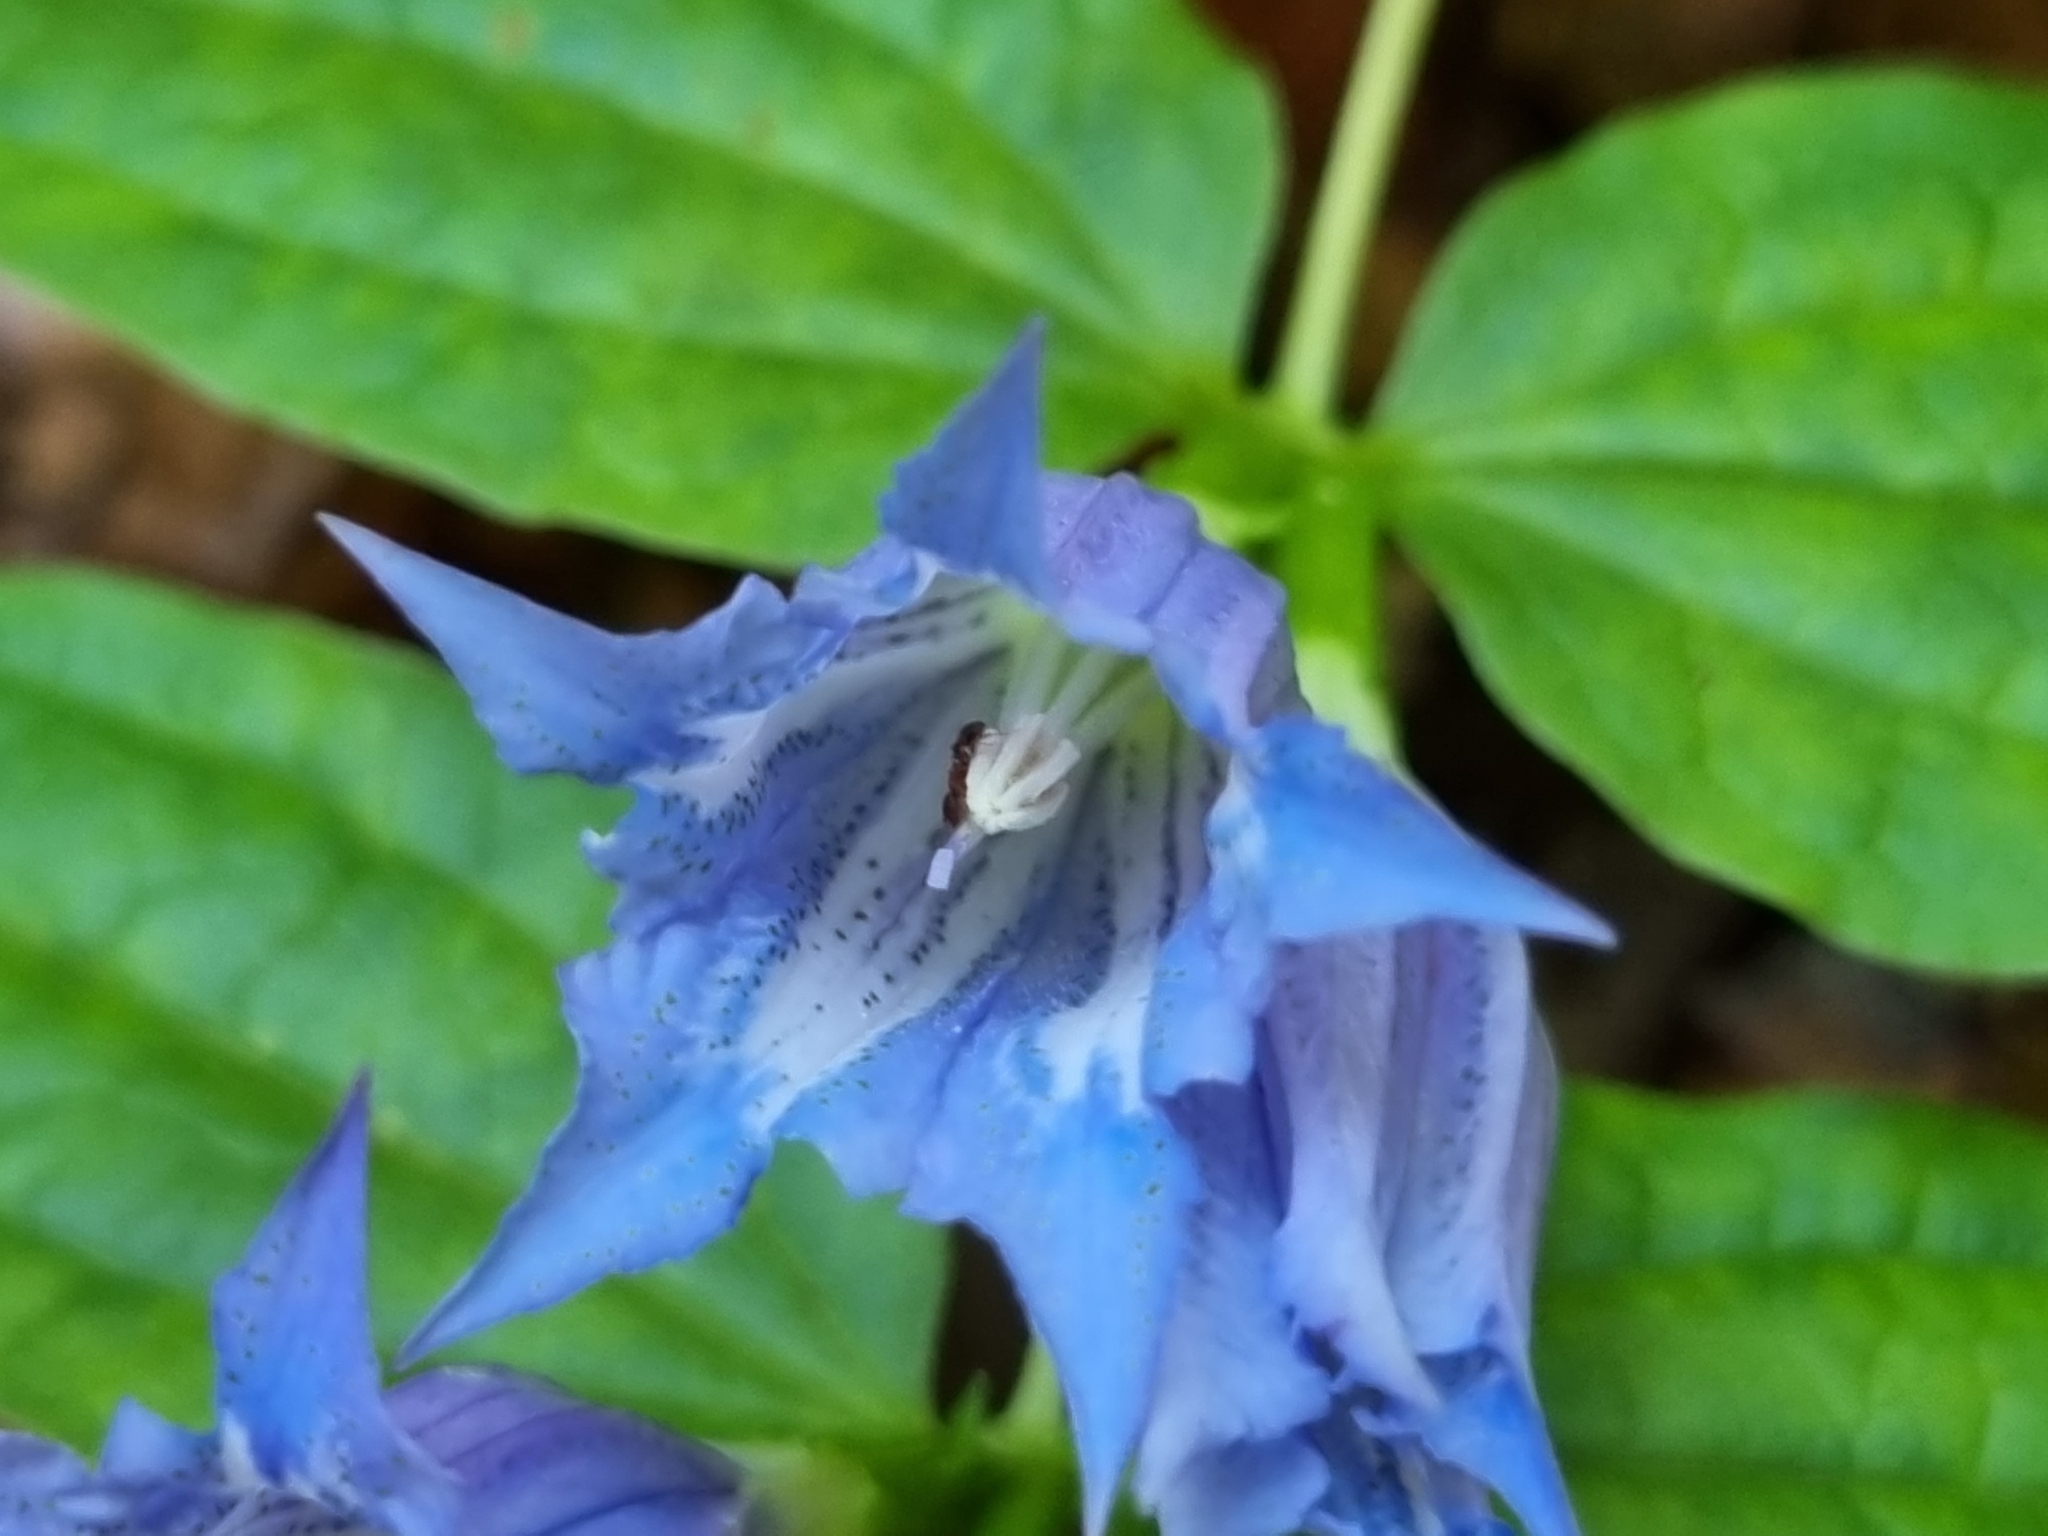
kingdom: Plantae
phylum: Tracheophyta
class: Magnoliopsida
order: Gentianales
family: Gentianaceae
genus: Gentiana
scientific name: Gentiana asclepiadea
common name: Willow gentian
